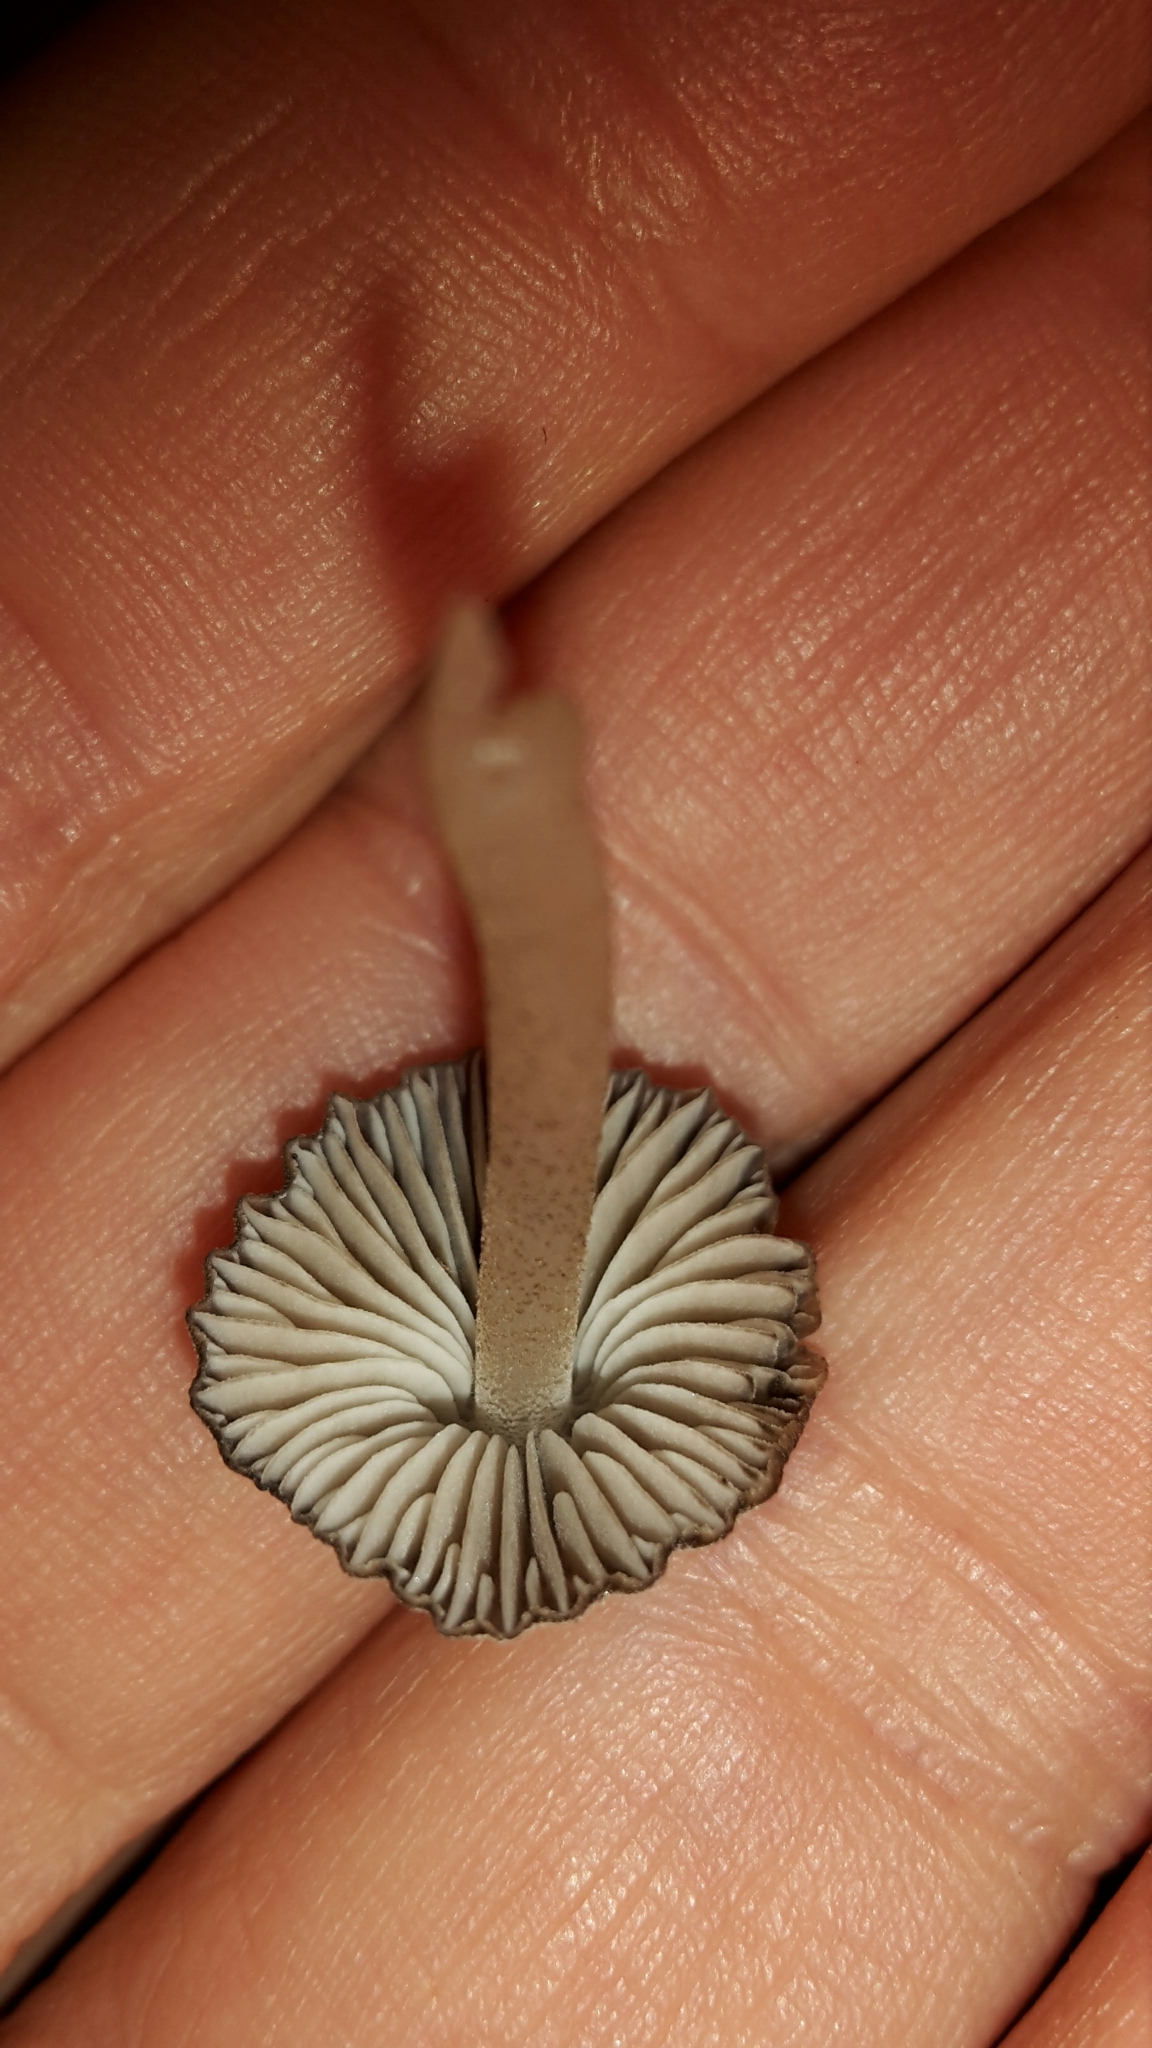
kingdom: Fungi
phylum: Basidiomycota
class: Agaricomycetes
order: Agaricales
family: Porotheleaceae
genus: Pseudohydropus
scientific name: Pseudohydropus parafunebris
